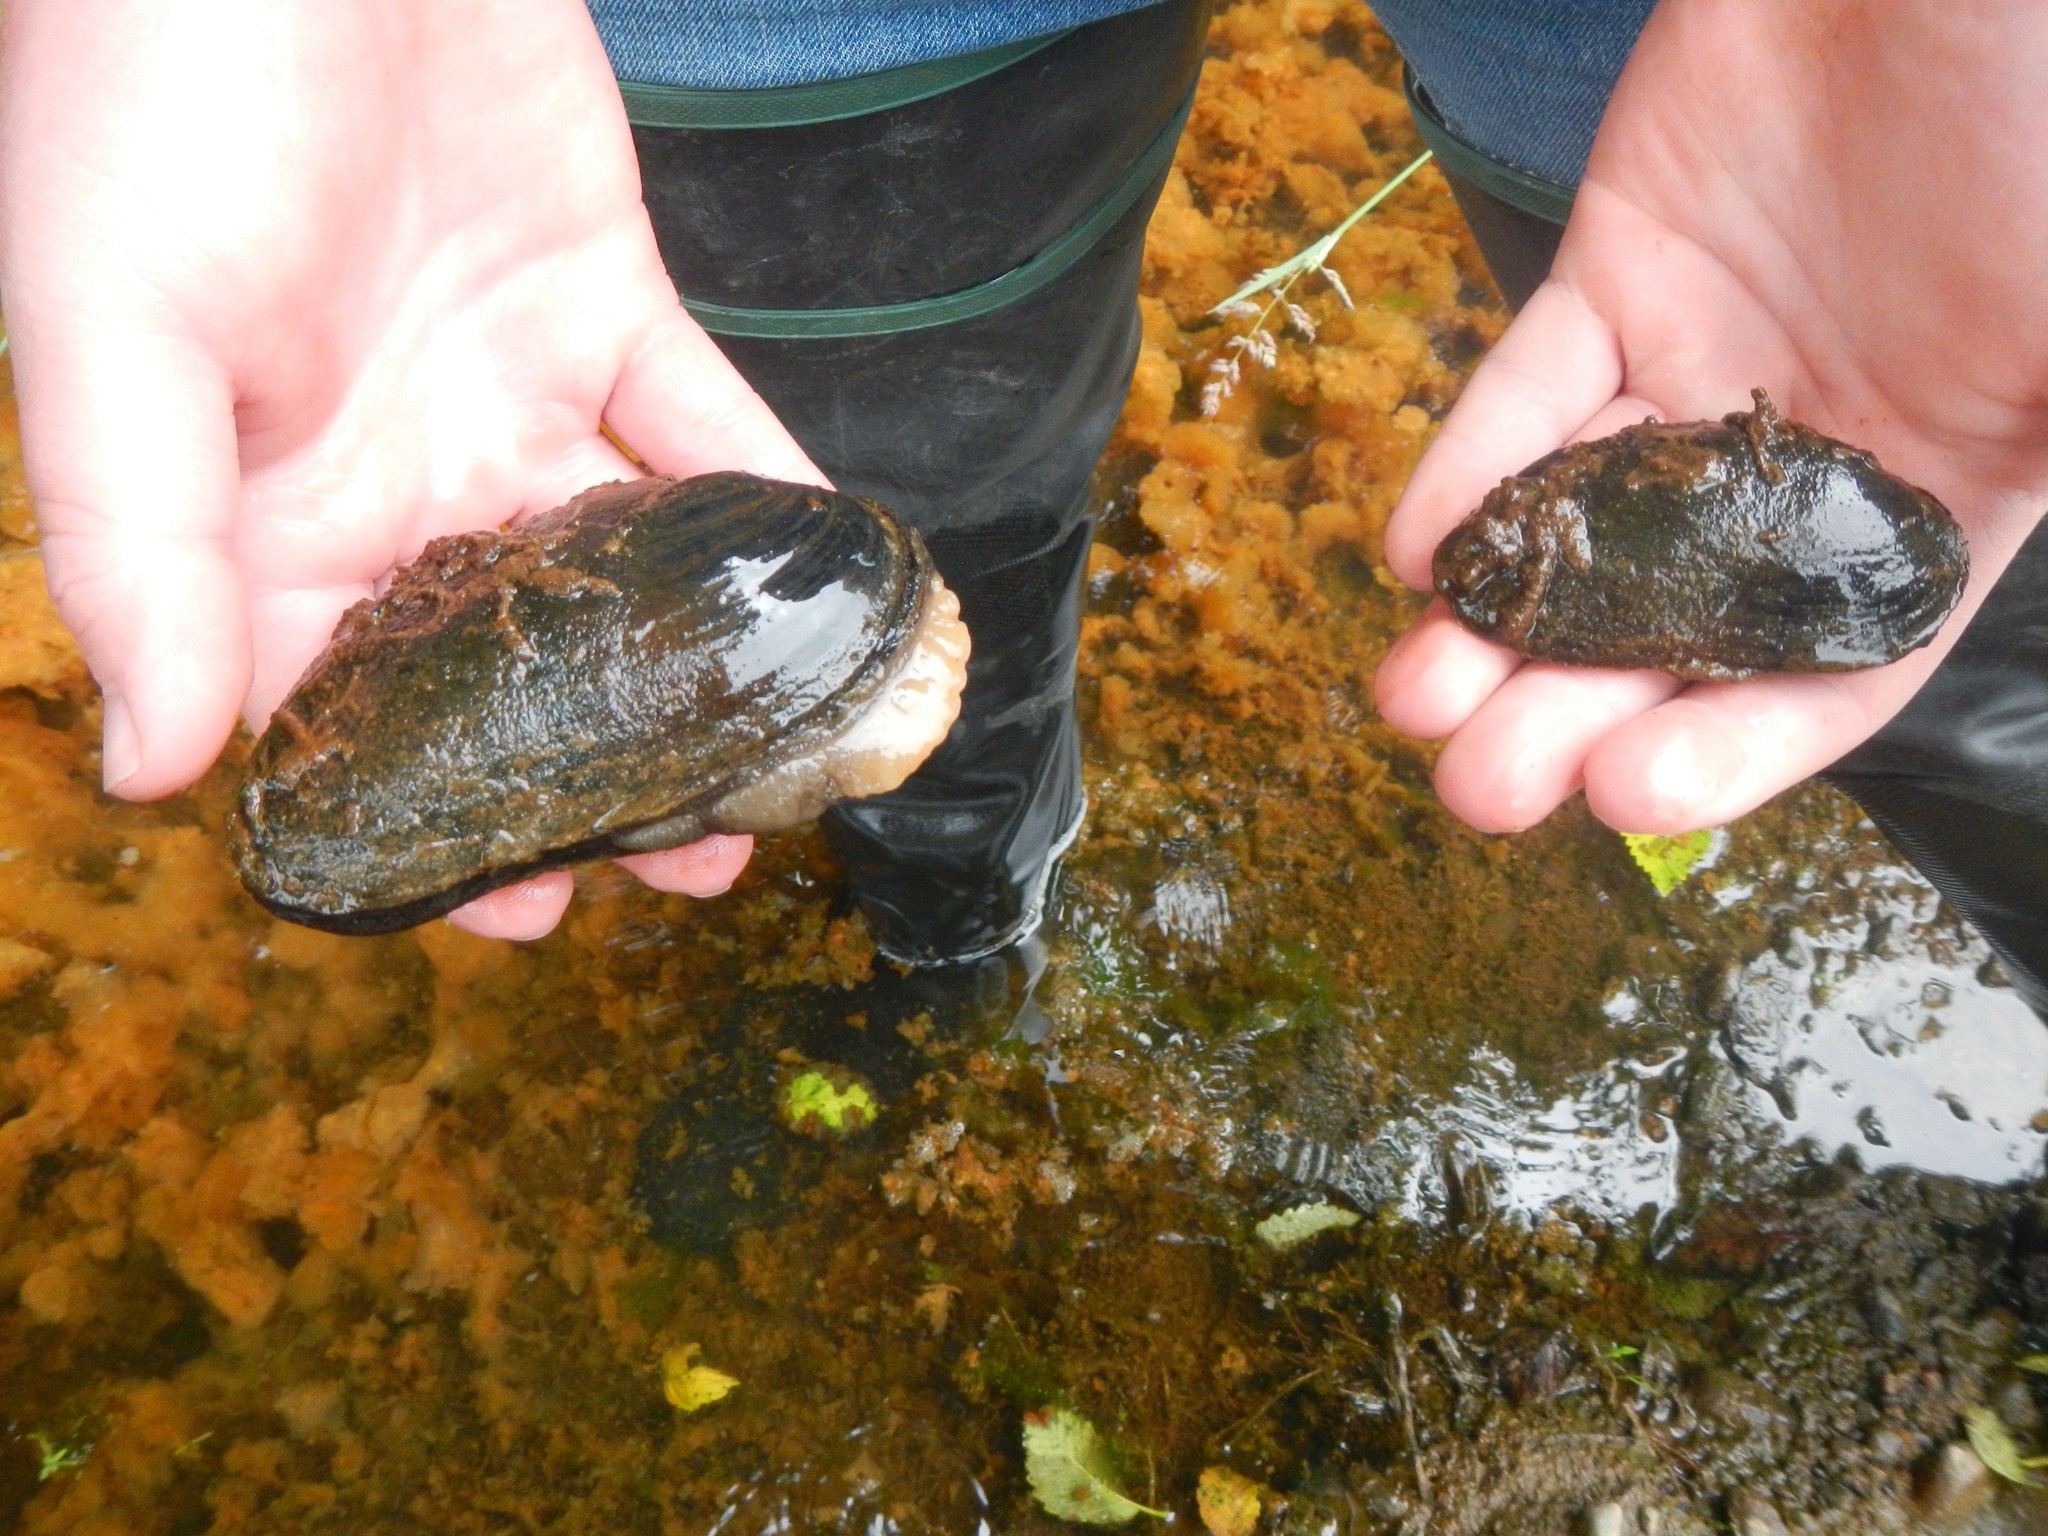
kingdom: Animalia
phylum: Mollusca
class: Bivalvia
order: Unionida
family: Margaritiferidae
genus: Margaritifera
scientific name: Margaritifera falcata
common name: Western pearlshell
